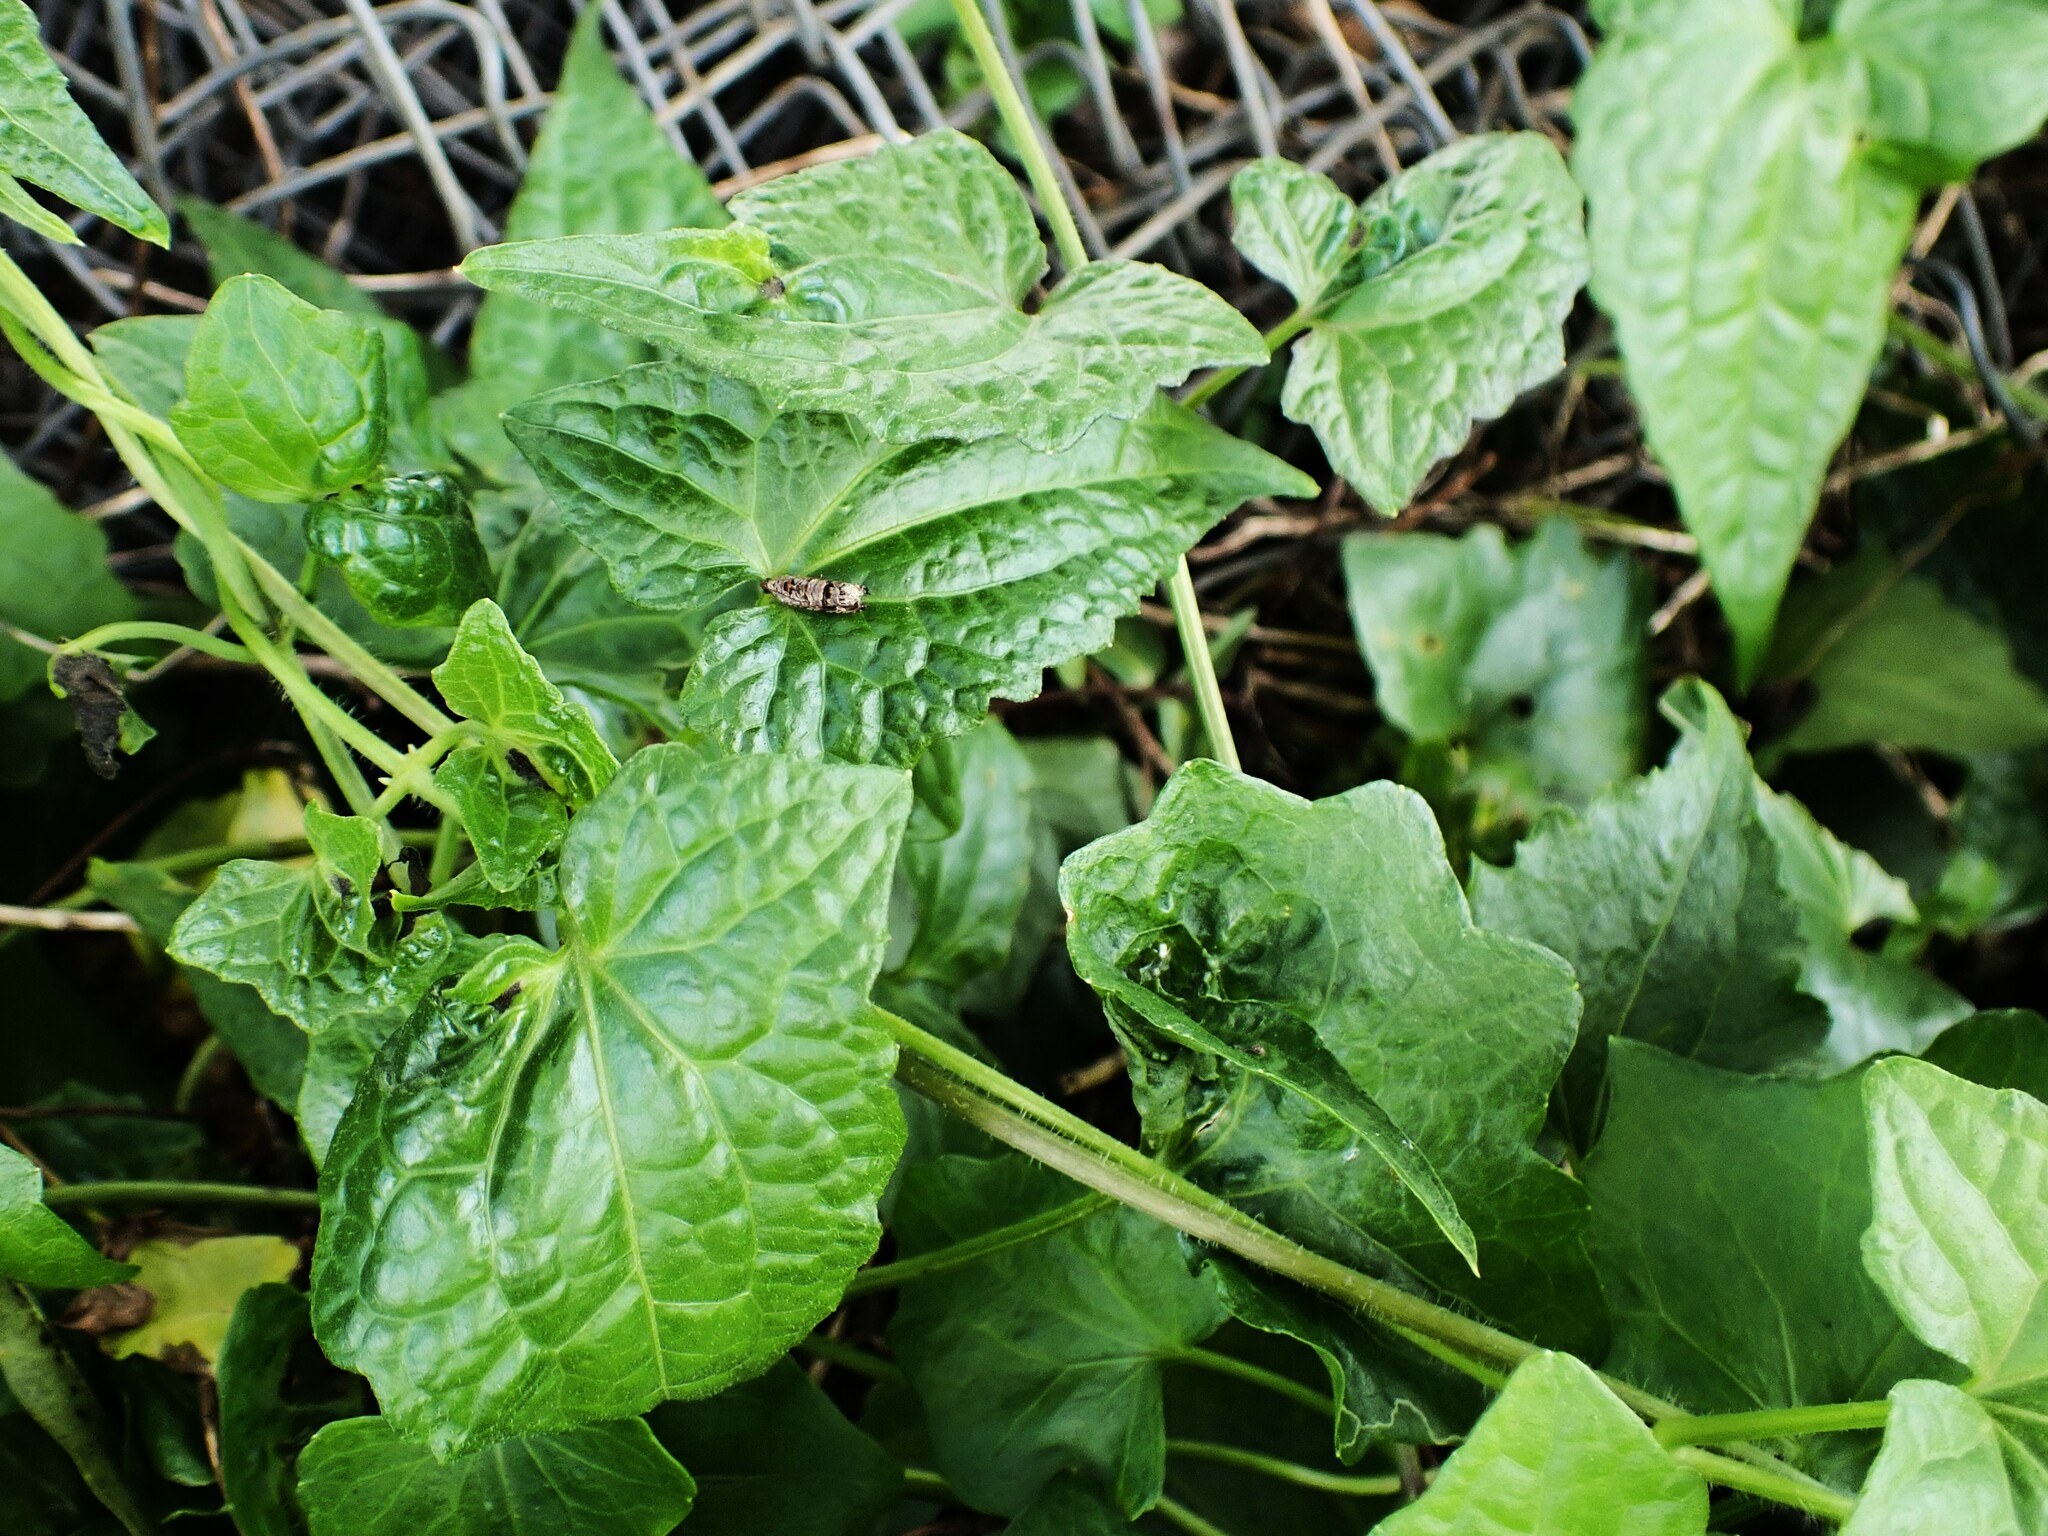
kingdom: Plantae
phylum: Tracheophyta
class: Magnoliopsida
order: Asterales
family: Asteraceae
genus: Mikania
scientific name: Mikania micrantha
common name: Mile-a-minute
